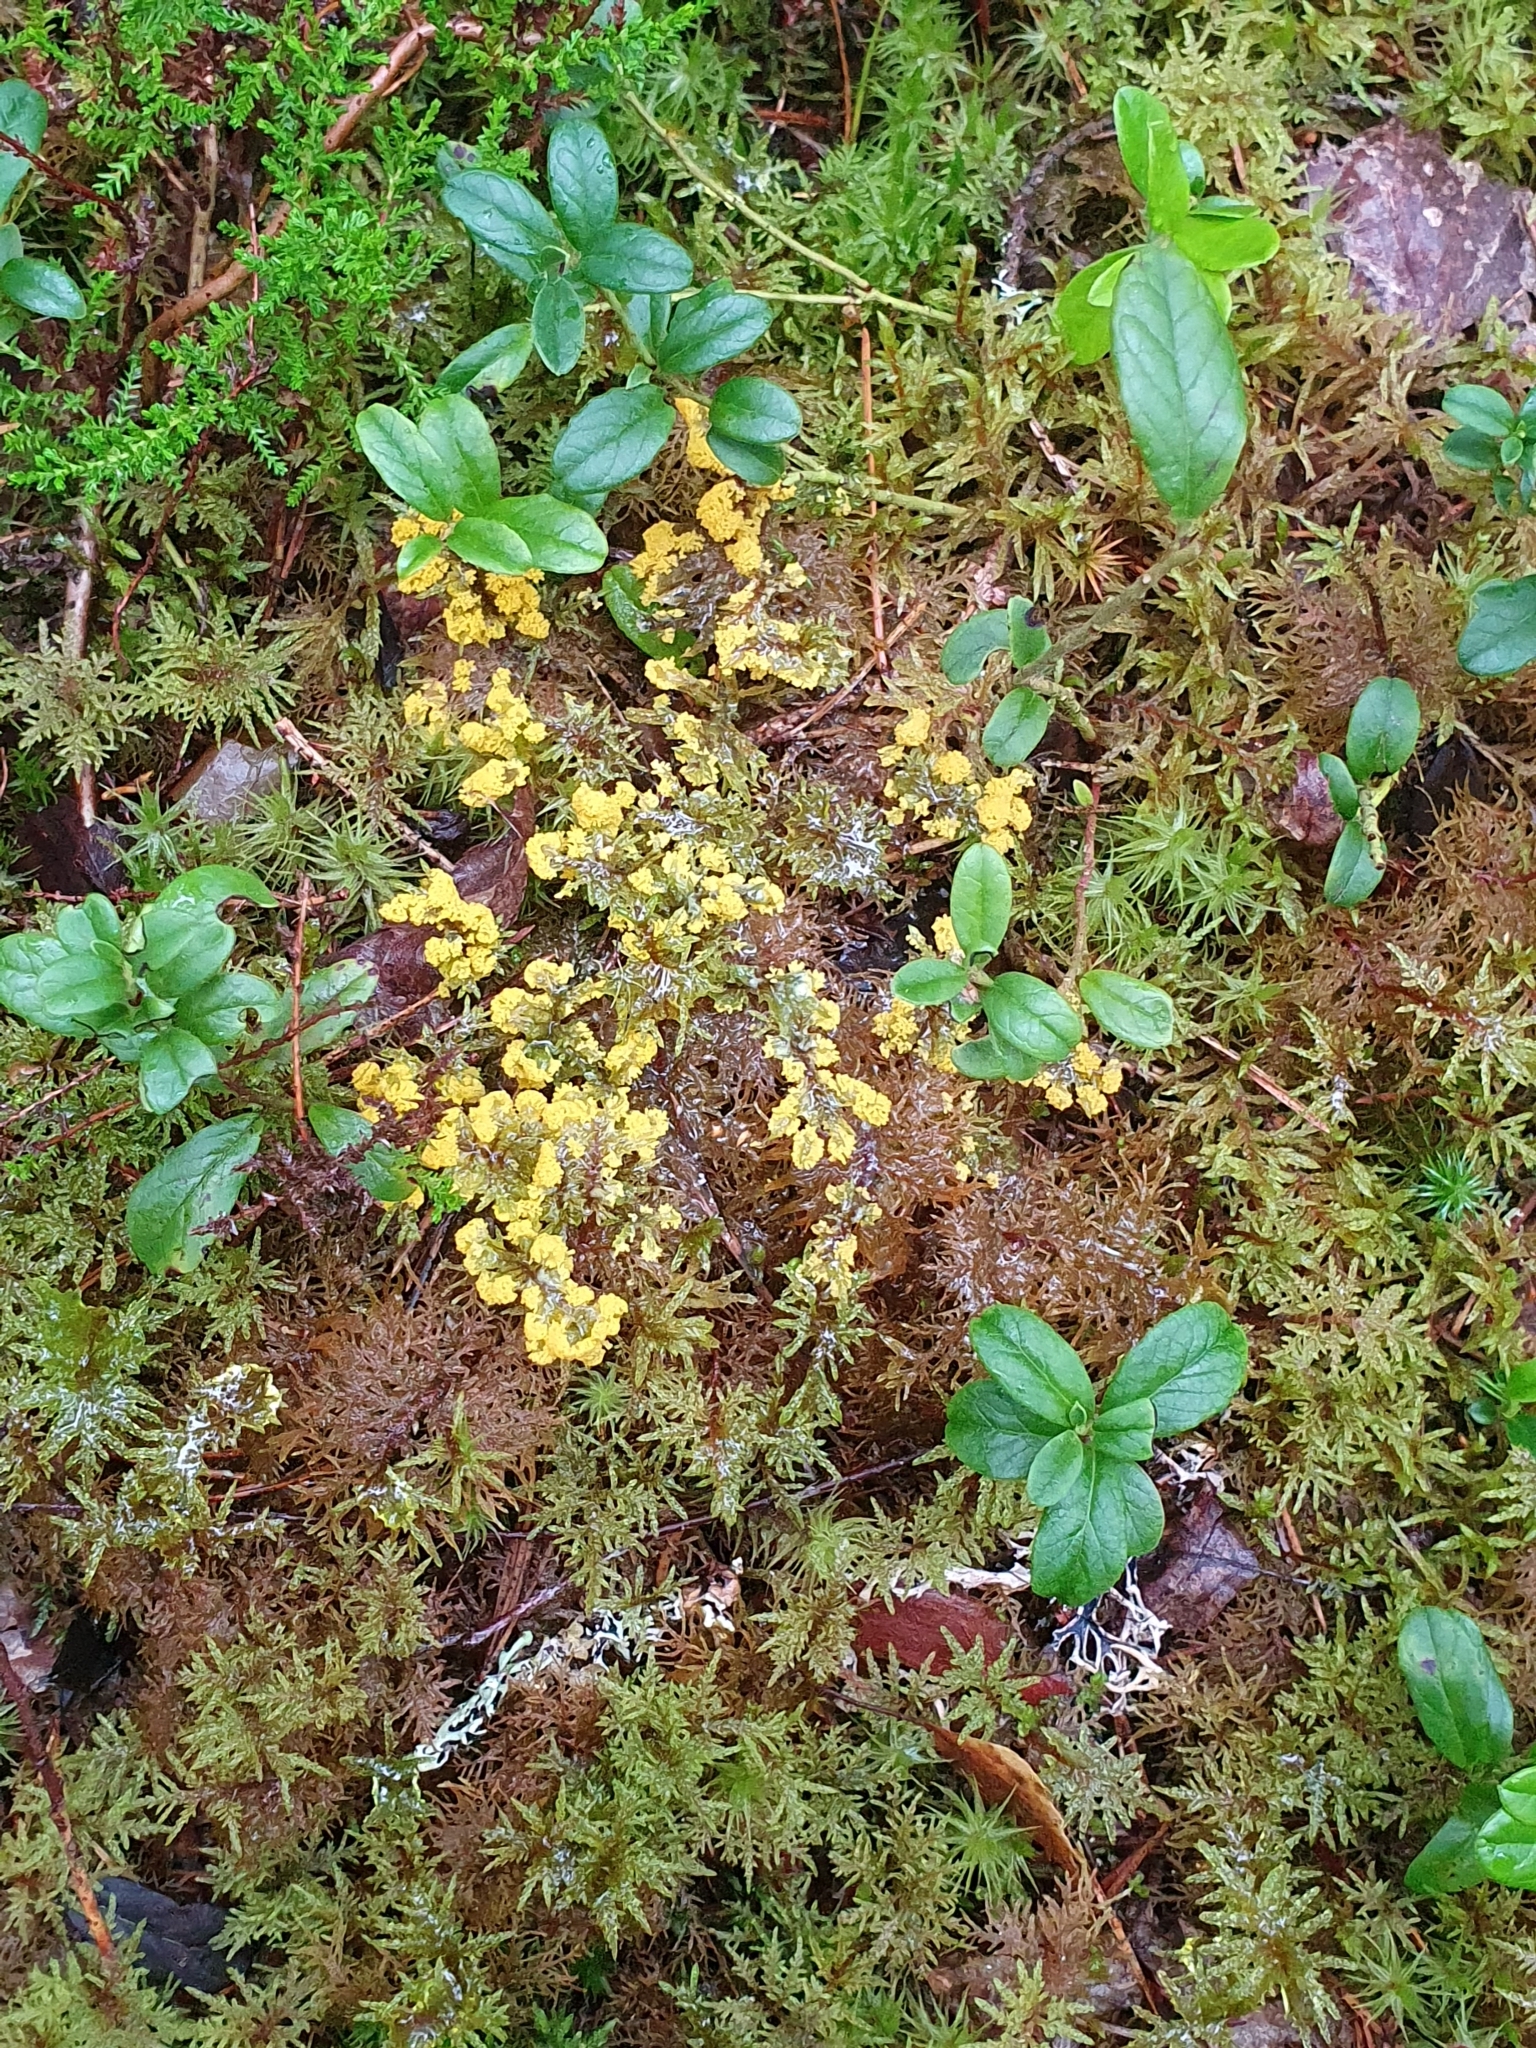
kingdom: Protozoa
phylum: Mycetozoa
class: Myxomycetes
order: Physarales
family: Physaraceae
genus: Fuligo
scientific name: Fuligo septica
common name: Dog vomit slime mold
